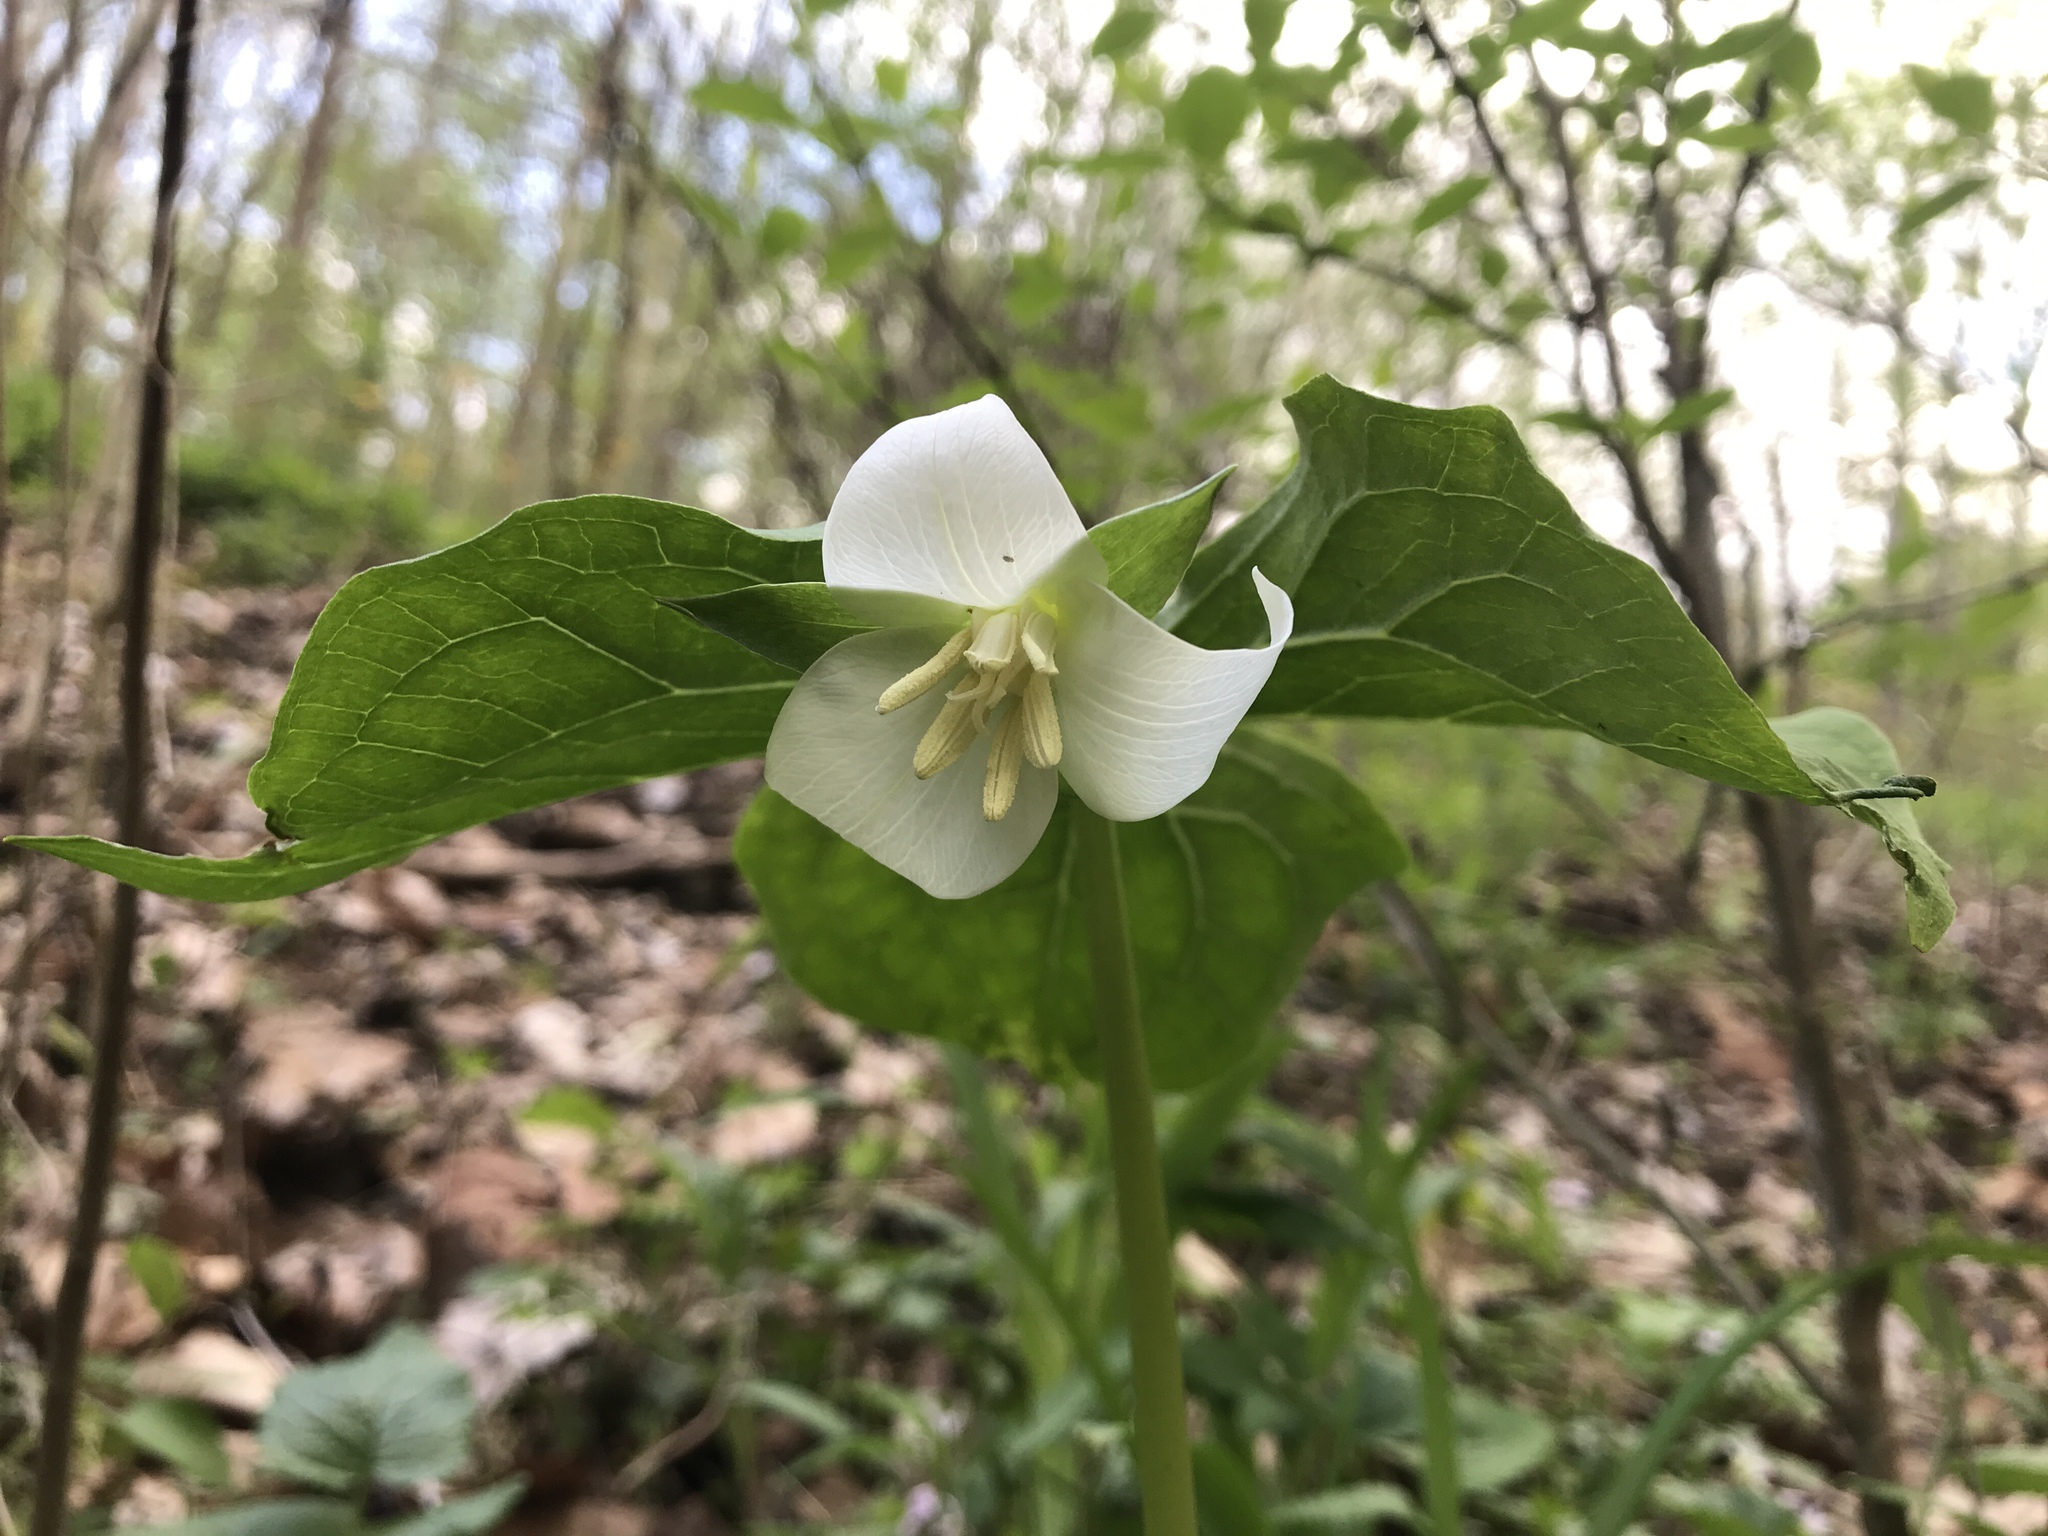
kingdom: Plantae
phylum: Tracheophyta
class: Liliopsida
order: Liliales
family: Melanthiaceae
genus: Trillium
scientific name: Trillium flexipes
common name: Drooping trillium
